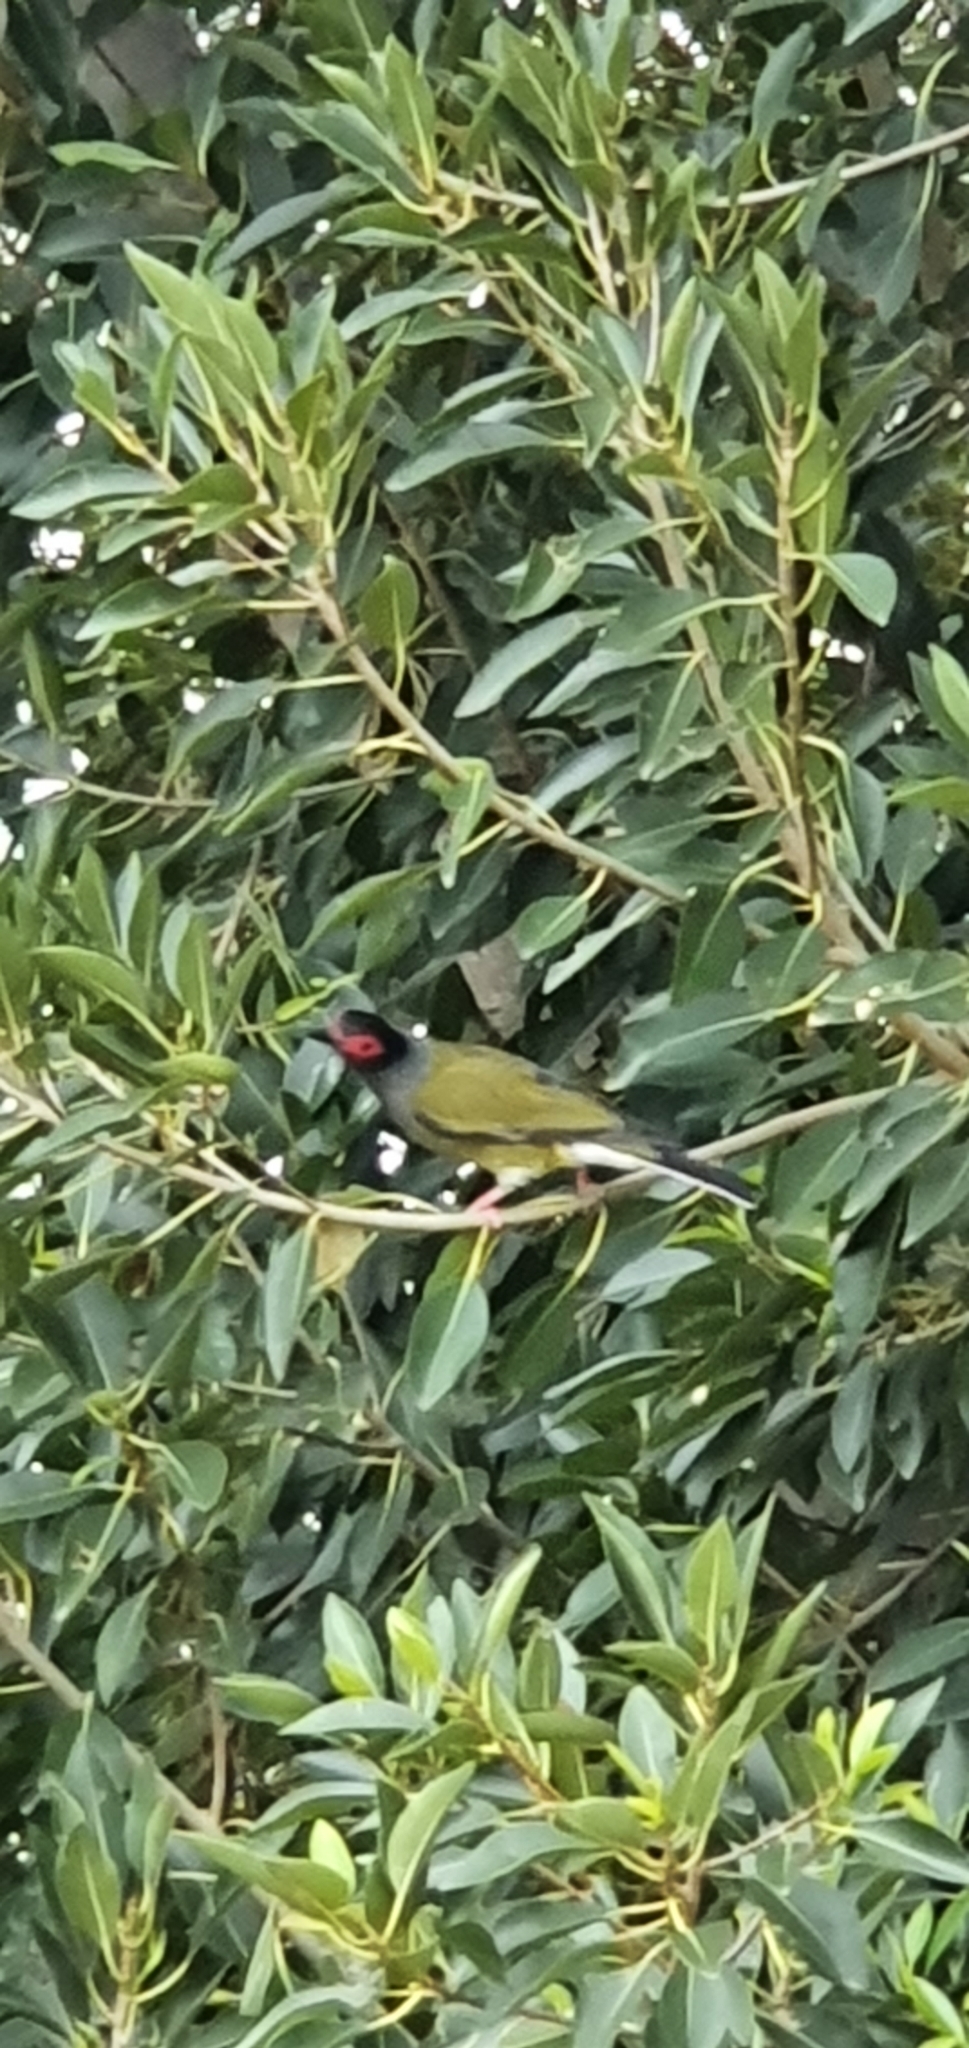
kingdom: Animalia
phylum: Chordata
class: Aves
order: Passeriformes
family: Oriolidae
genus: Sphecotheres
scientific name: Sphecotheres vieilloti
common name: Australasian figbird
